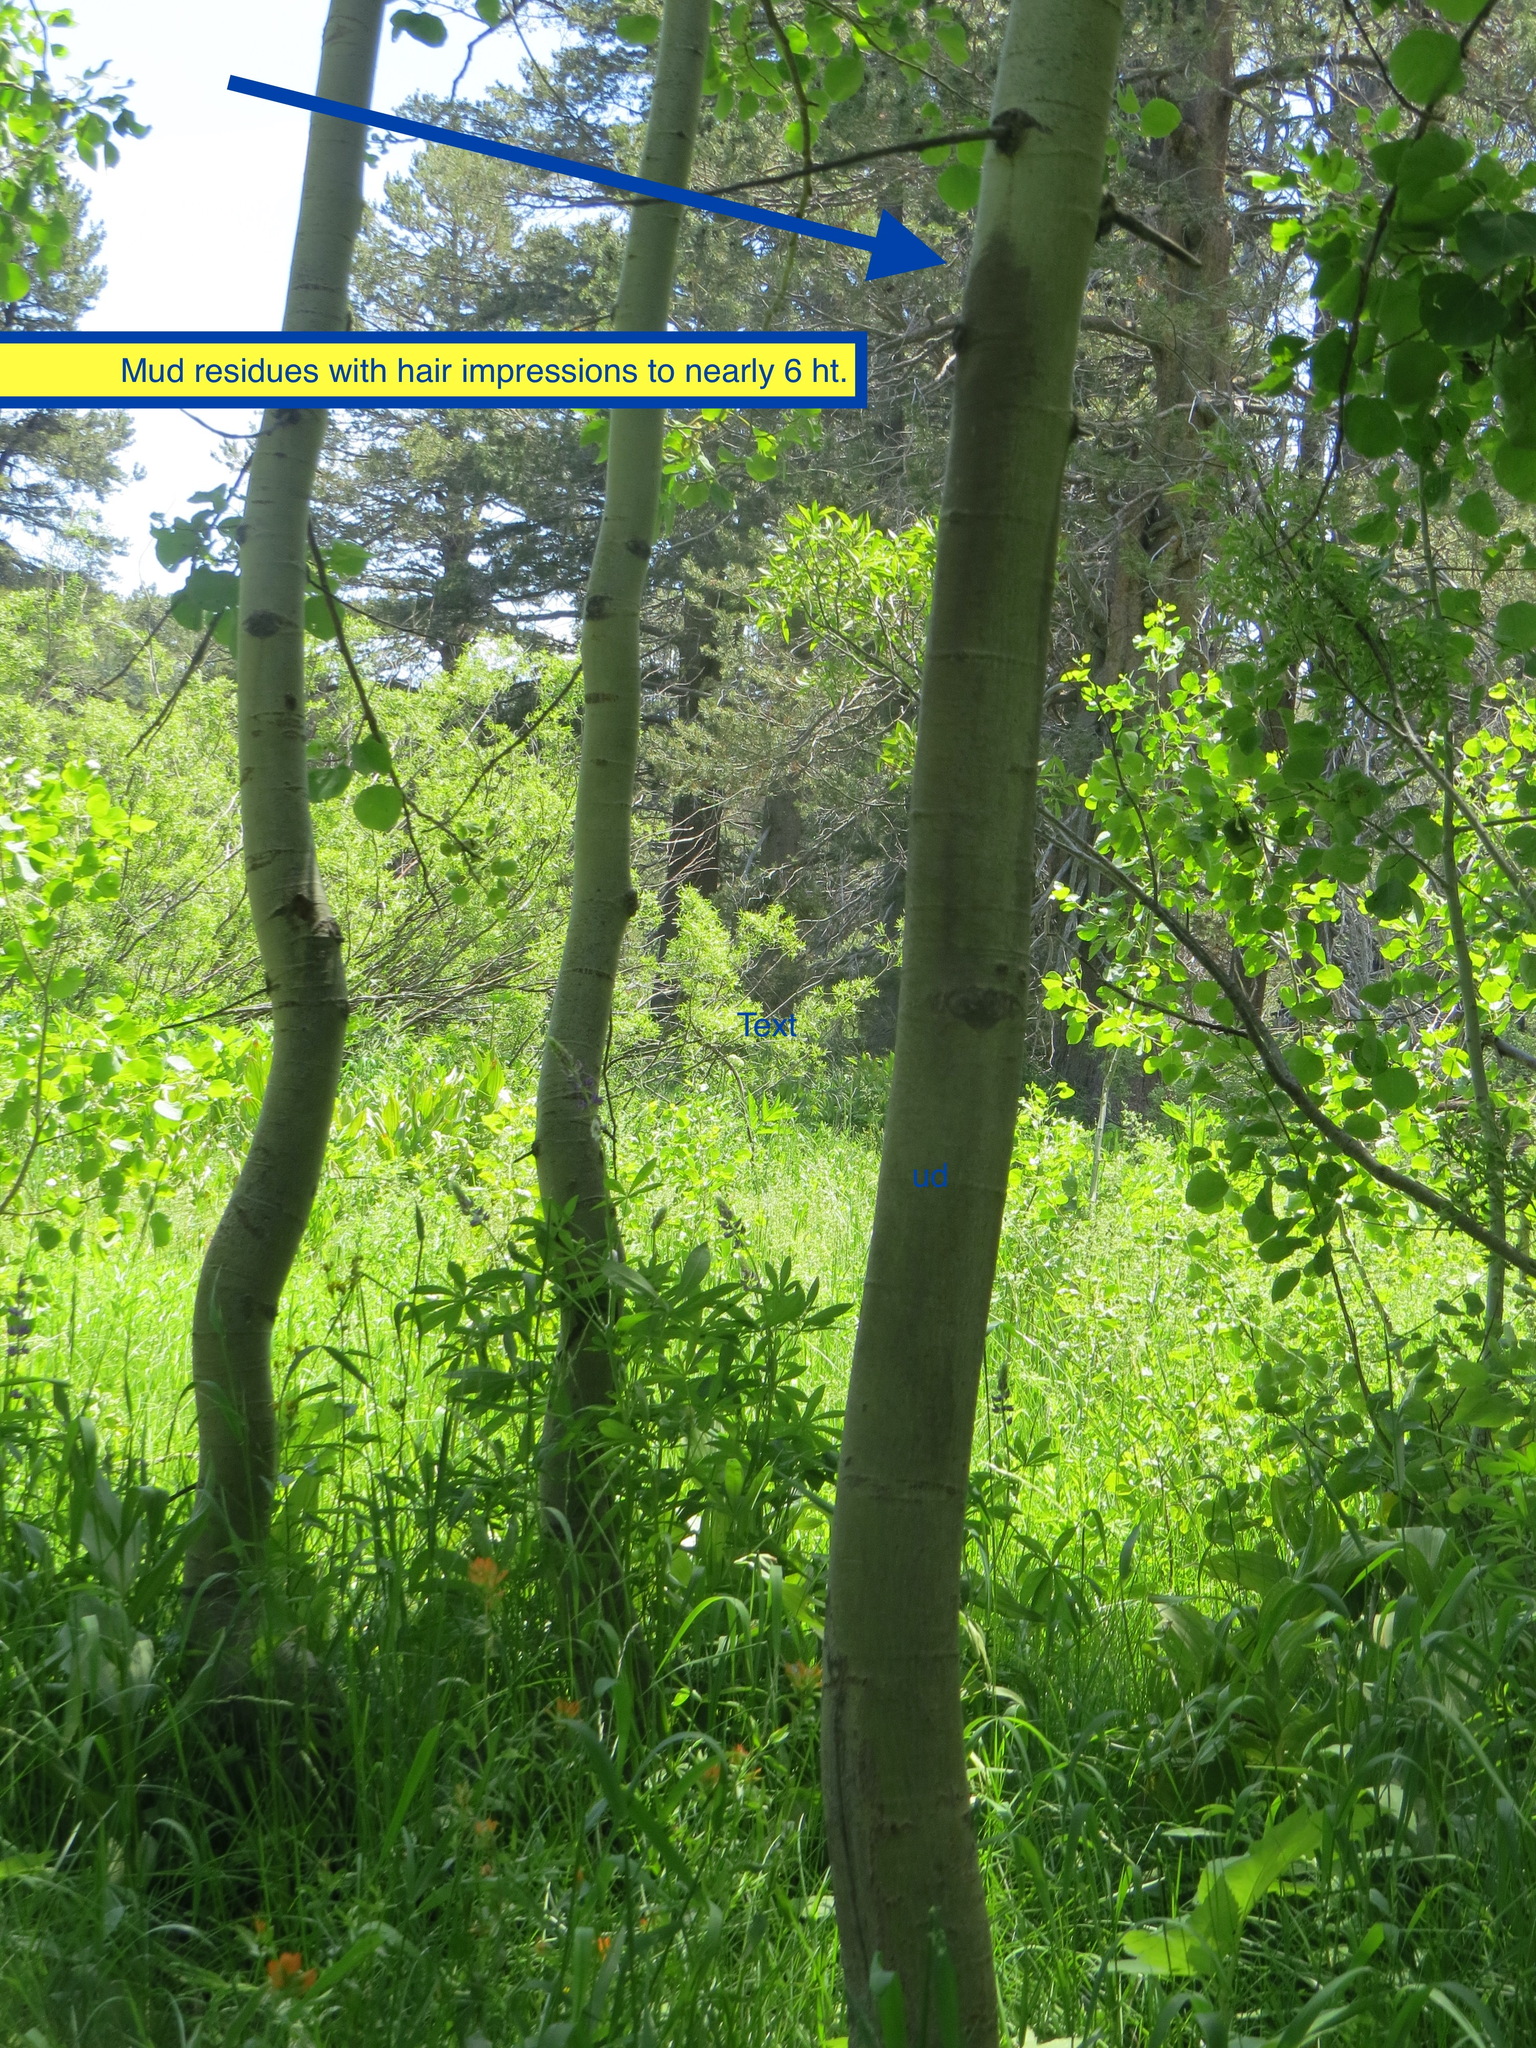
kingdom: Animalia
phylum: Chordata
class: Mammalia
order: Carnivora
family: Ursidae
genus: Ursus
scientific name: Ursus americanus
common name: American black bear
